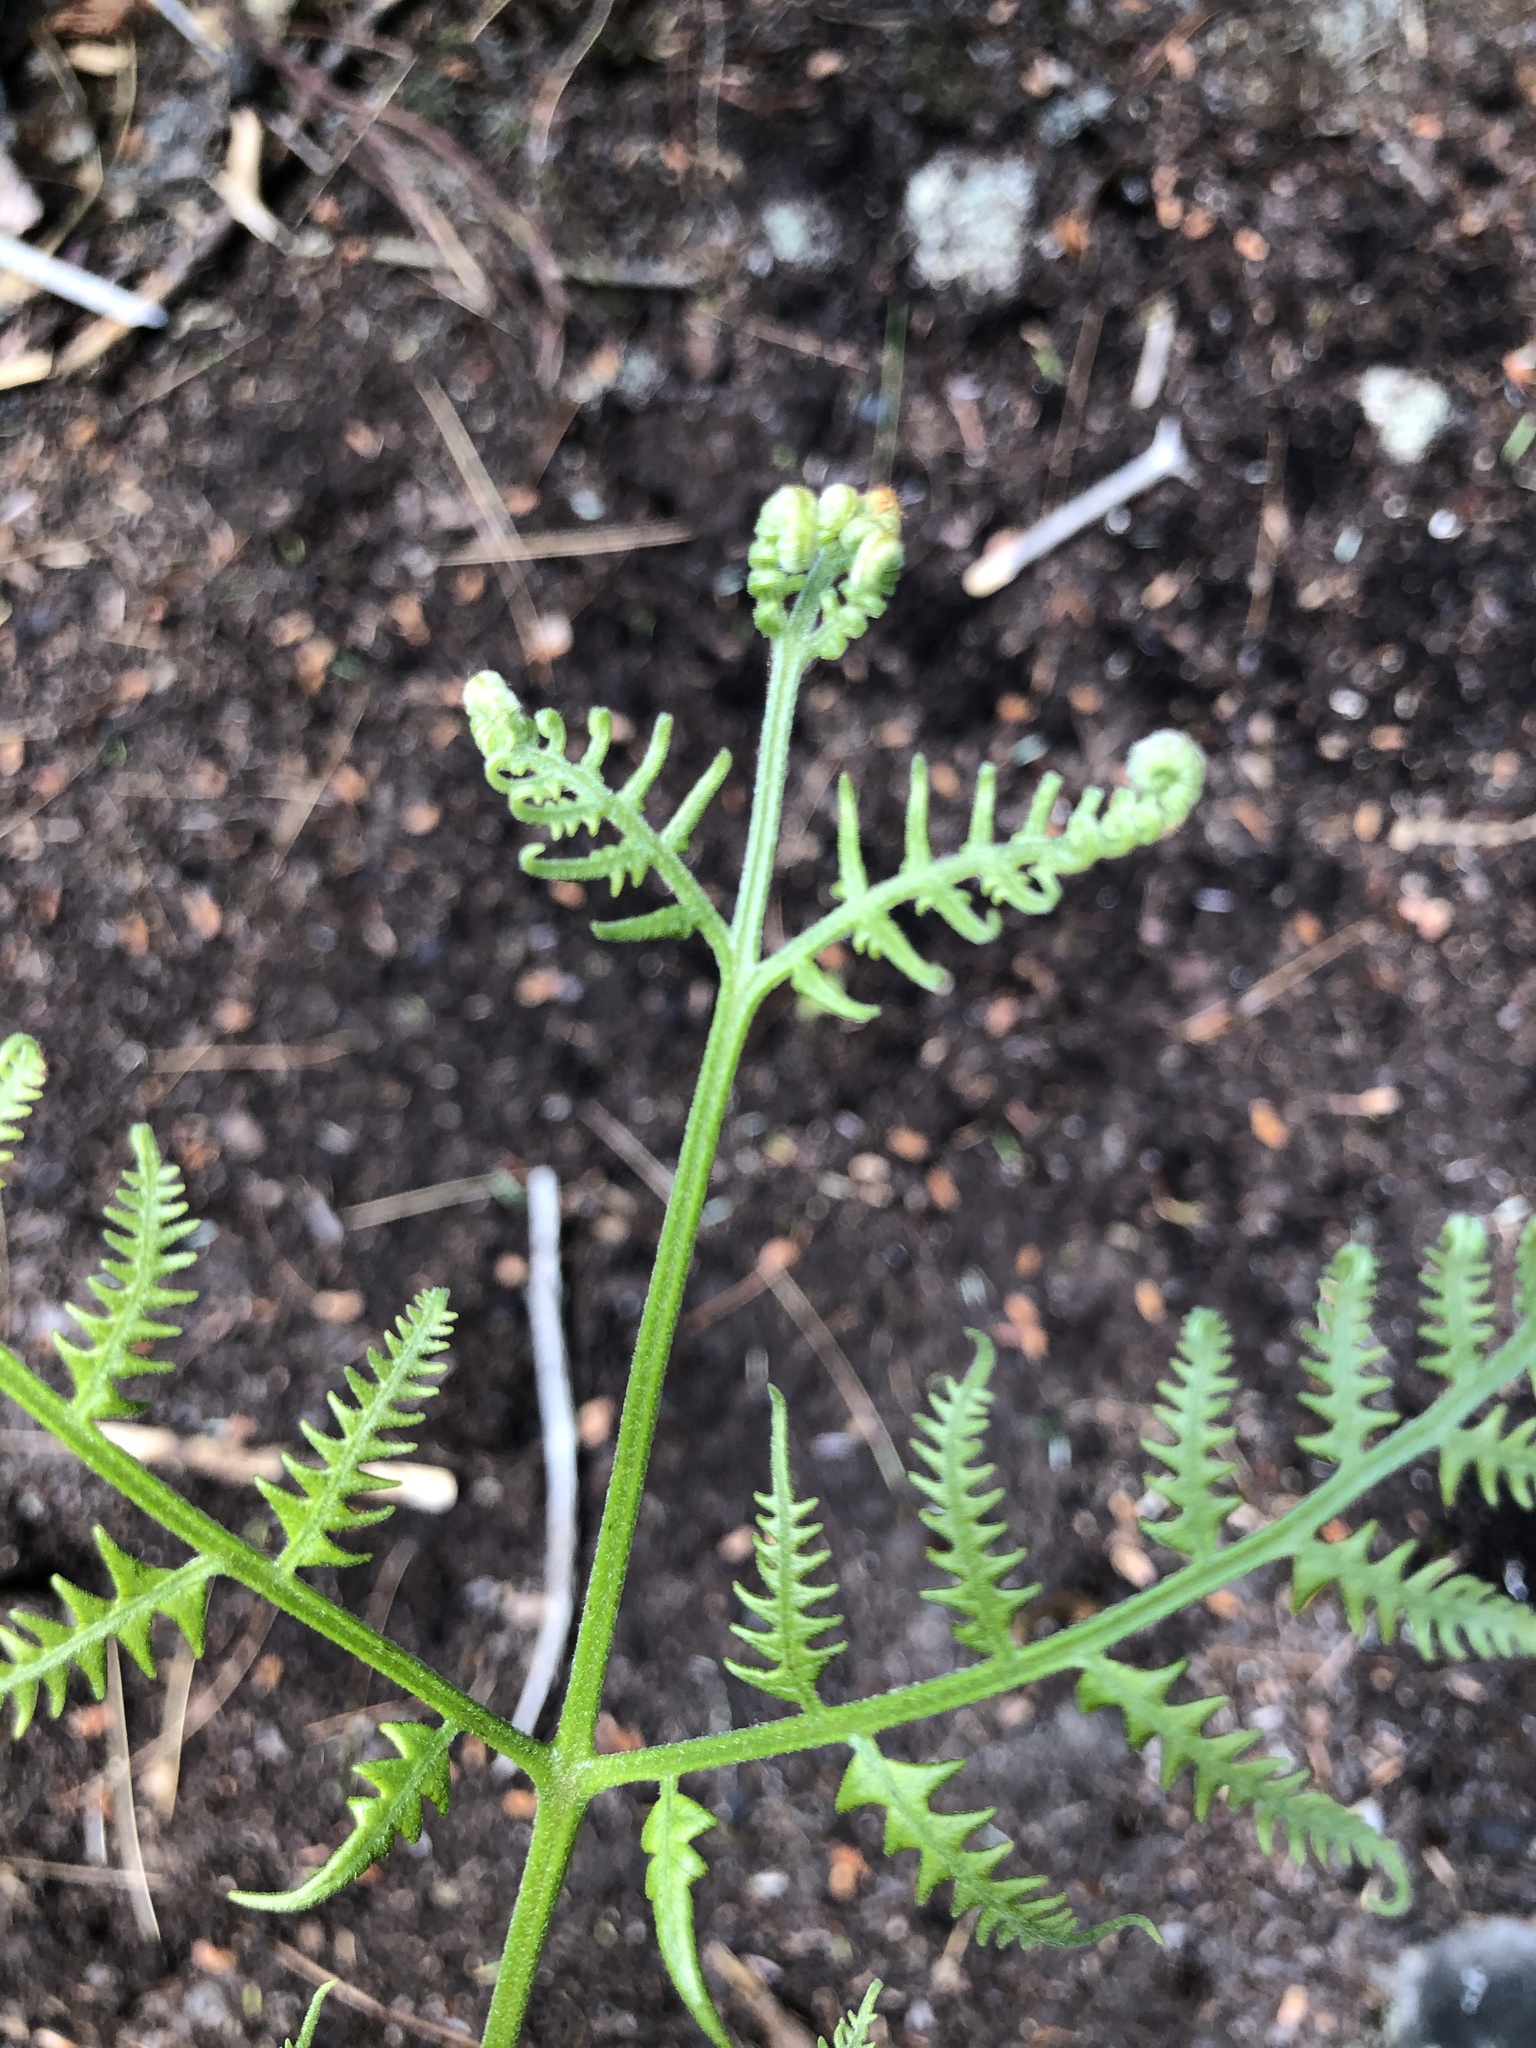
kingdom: Plantae
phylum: Tracheophyta
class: Polypodiopsida
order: Polypodiales
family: Dennstaedtiaceae
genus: Pteridium
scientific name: Pteridium aquilinum
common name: Bracken
